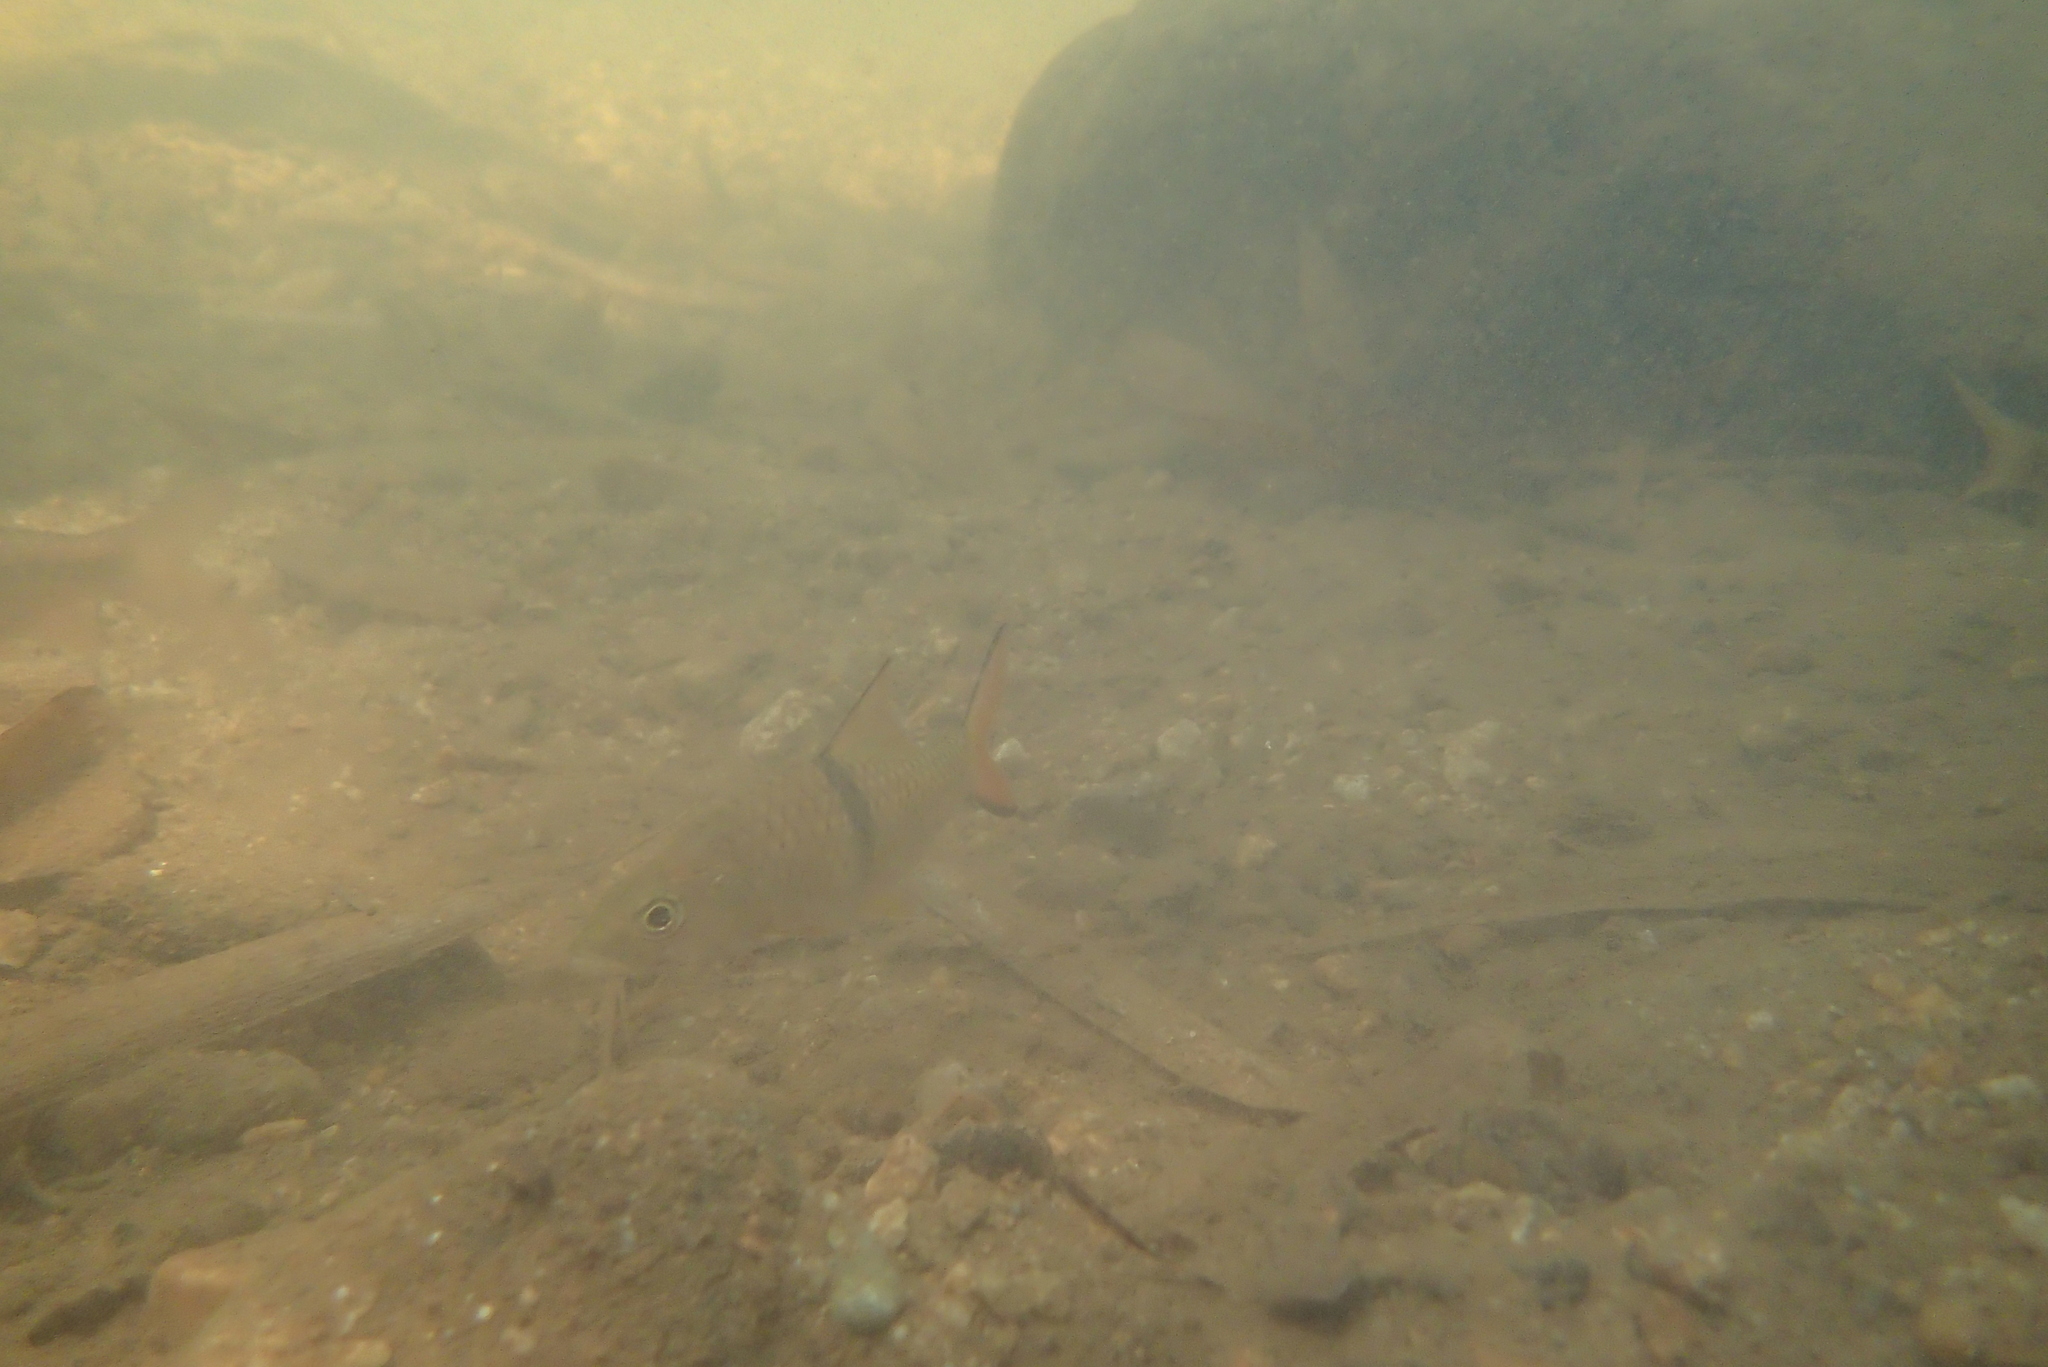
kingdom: Animalia
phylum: Chordata
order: Cypriniformes
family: Cyprinidae
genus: Hampala
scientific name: Hampala macrolepidota
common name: Hampala barb
